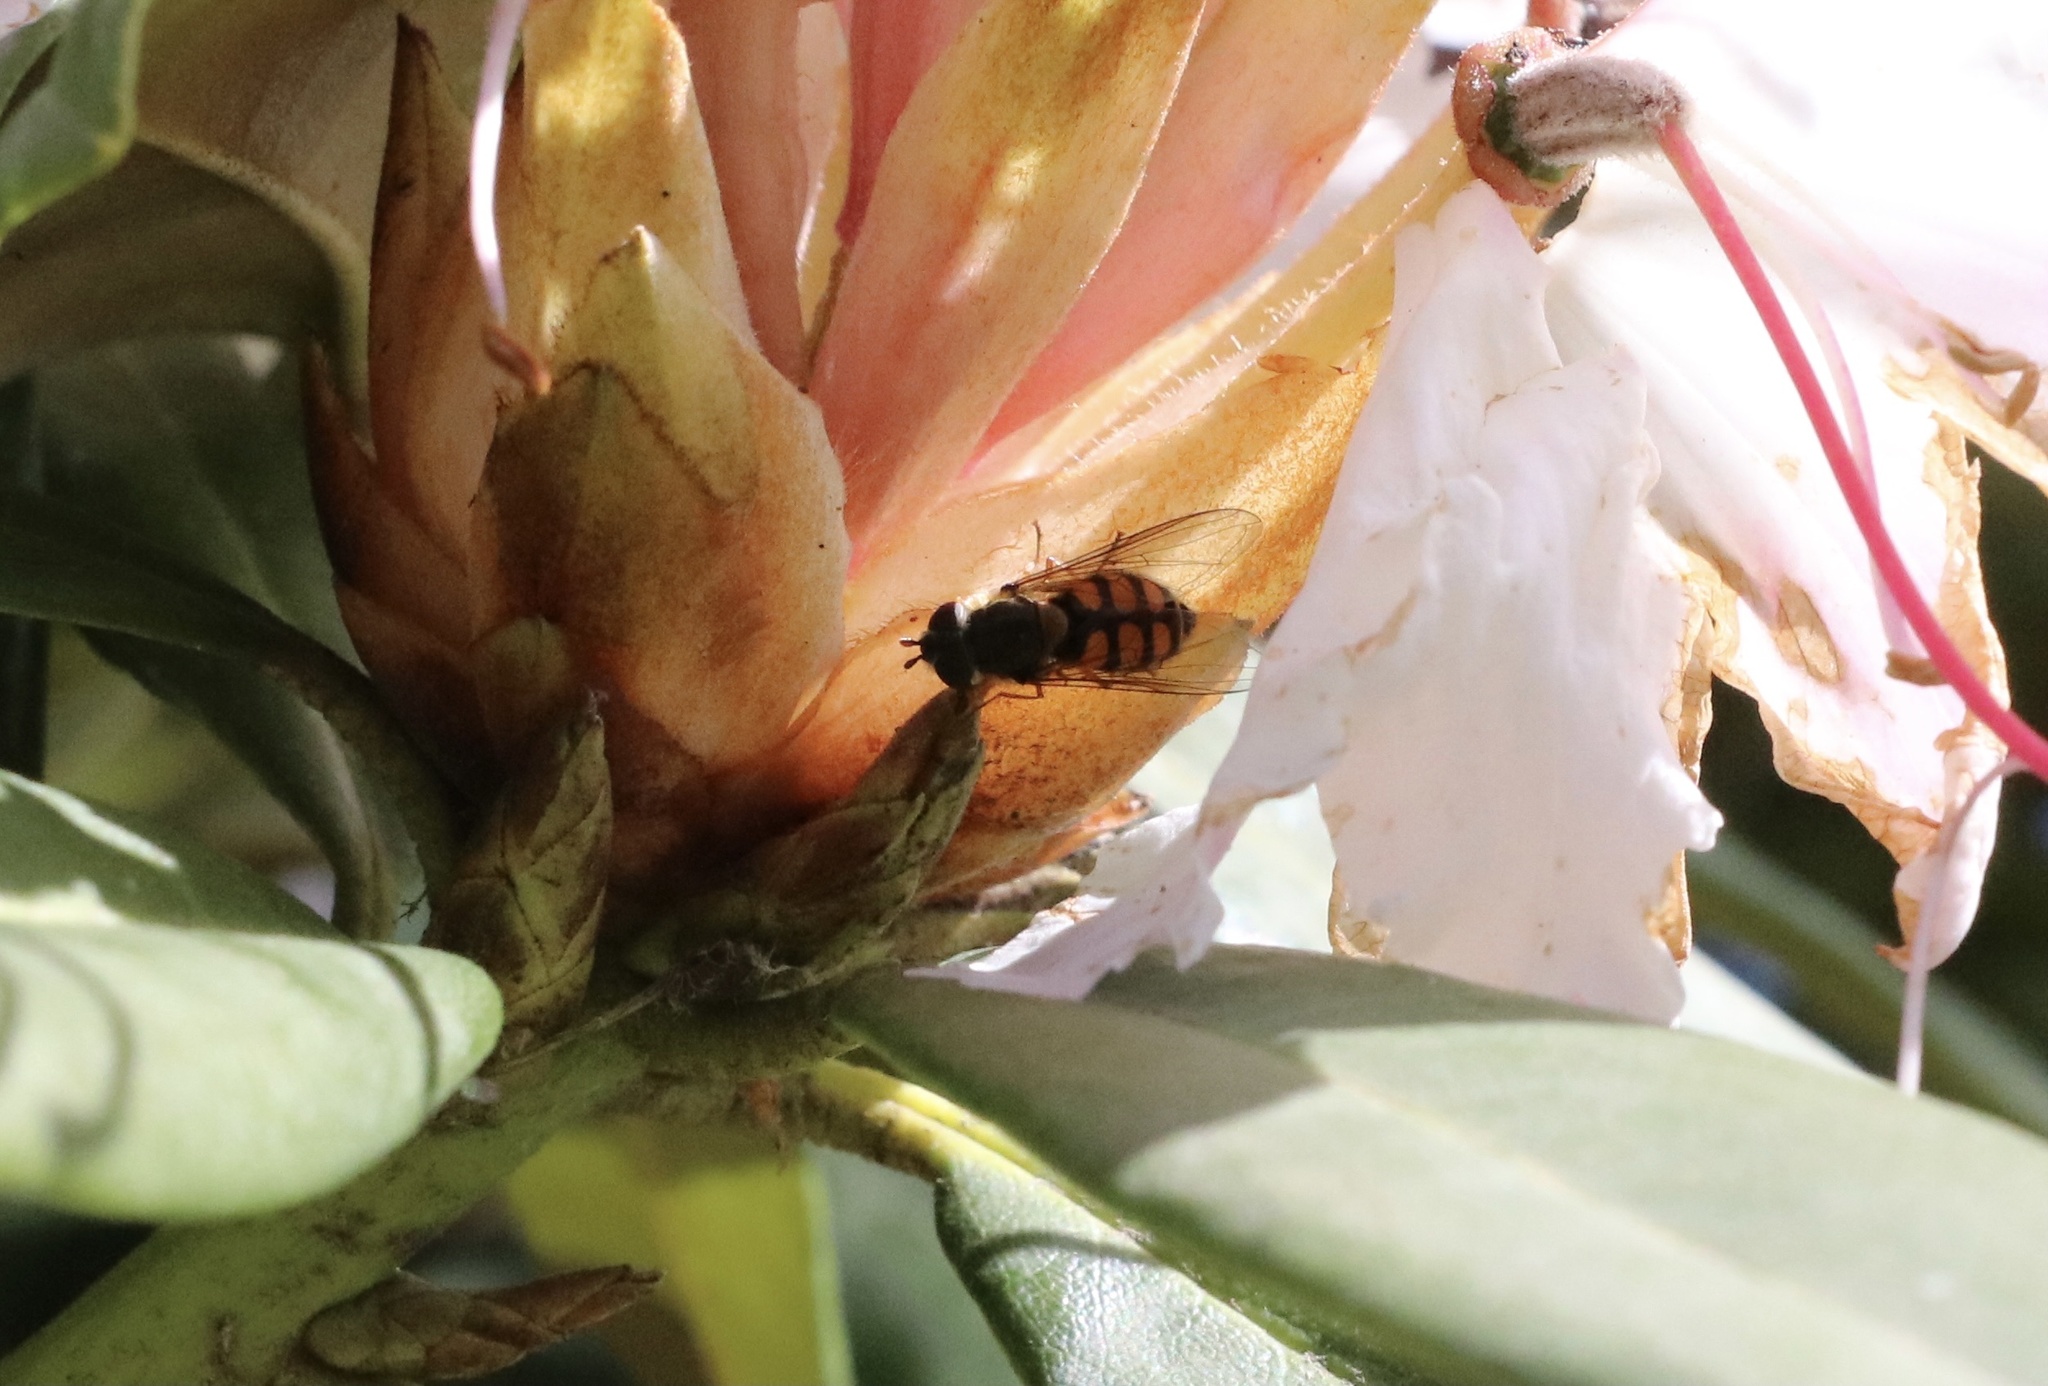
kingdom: Animalia
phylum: Arthropoda
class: Insecta
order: Diptera
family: Syrphidae
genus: Syrphus
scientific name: Syrphus octomaculatus
